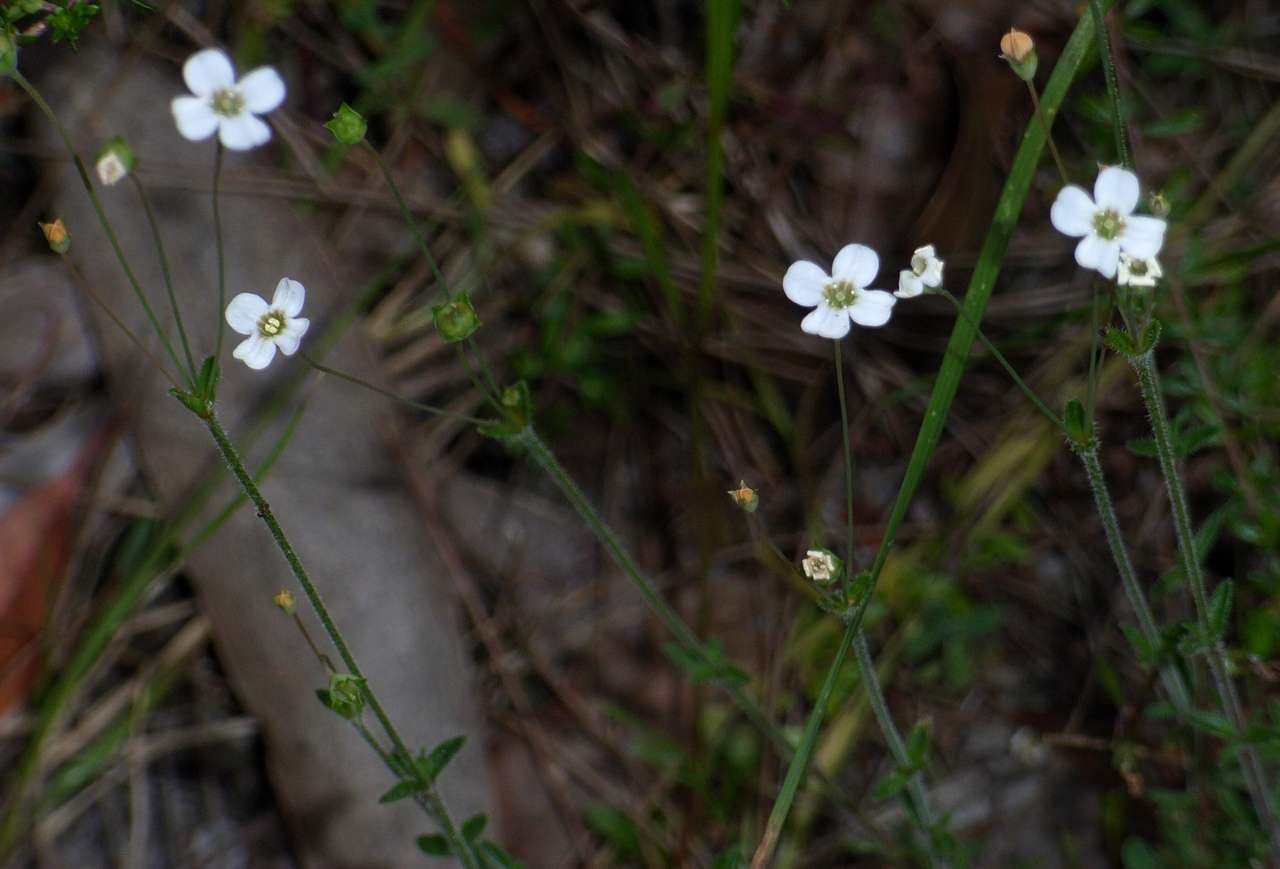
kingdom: Plantae
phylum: Tracheophyta
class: Magnoliopsida
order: Gentianales
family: Loganiaceae
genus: Mitrasacme
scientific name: Mitrasacme polymorpha
